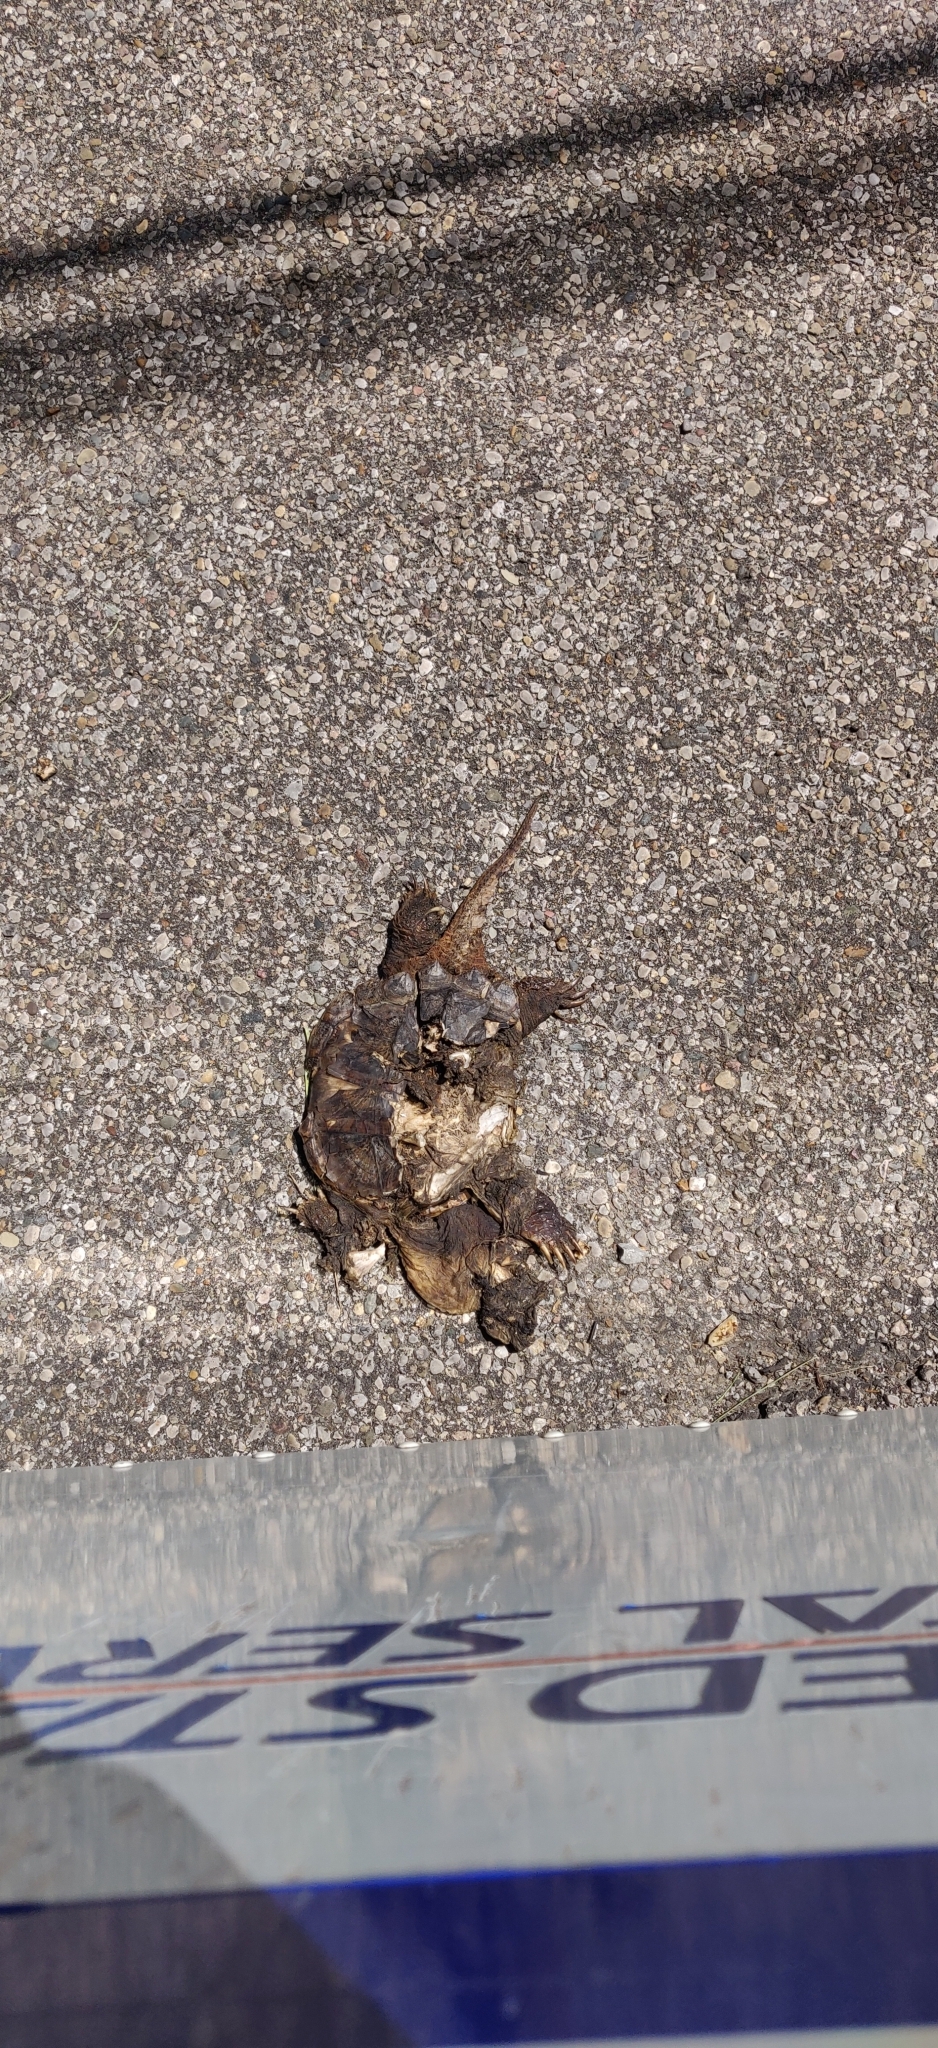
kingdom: Animalia
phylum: Chordata
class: Testudines
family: Chelydridae
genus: Chelydra
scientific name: Chelydra serpentina
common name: Common snapping turtle
